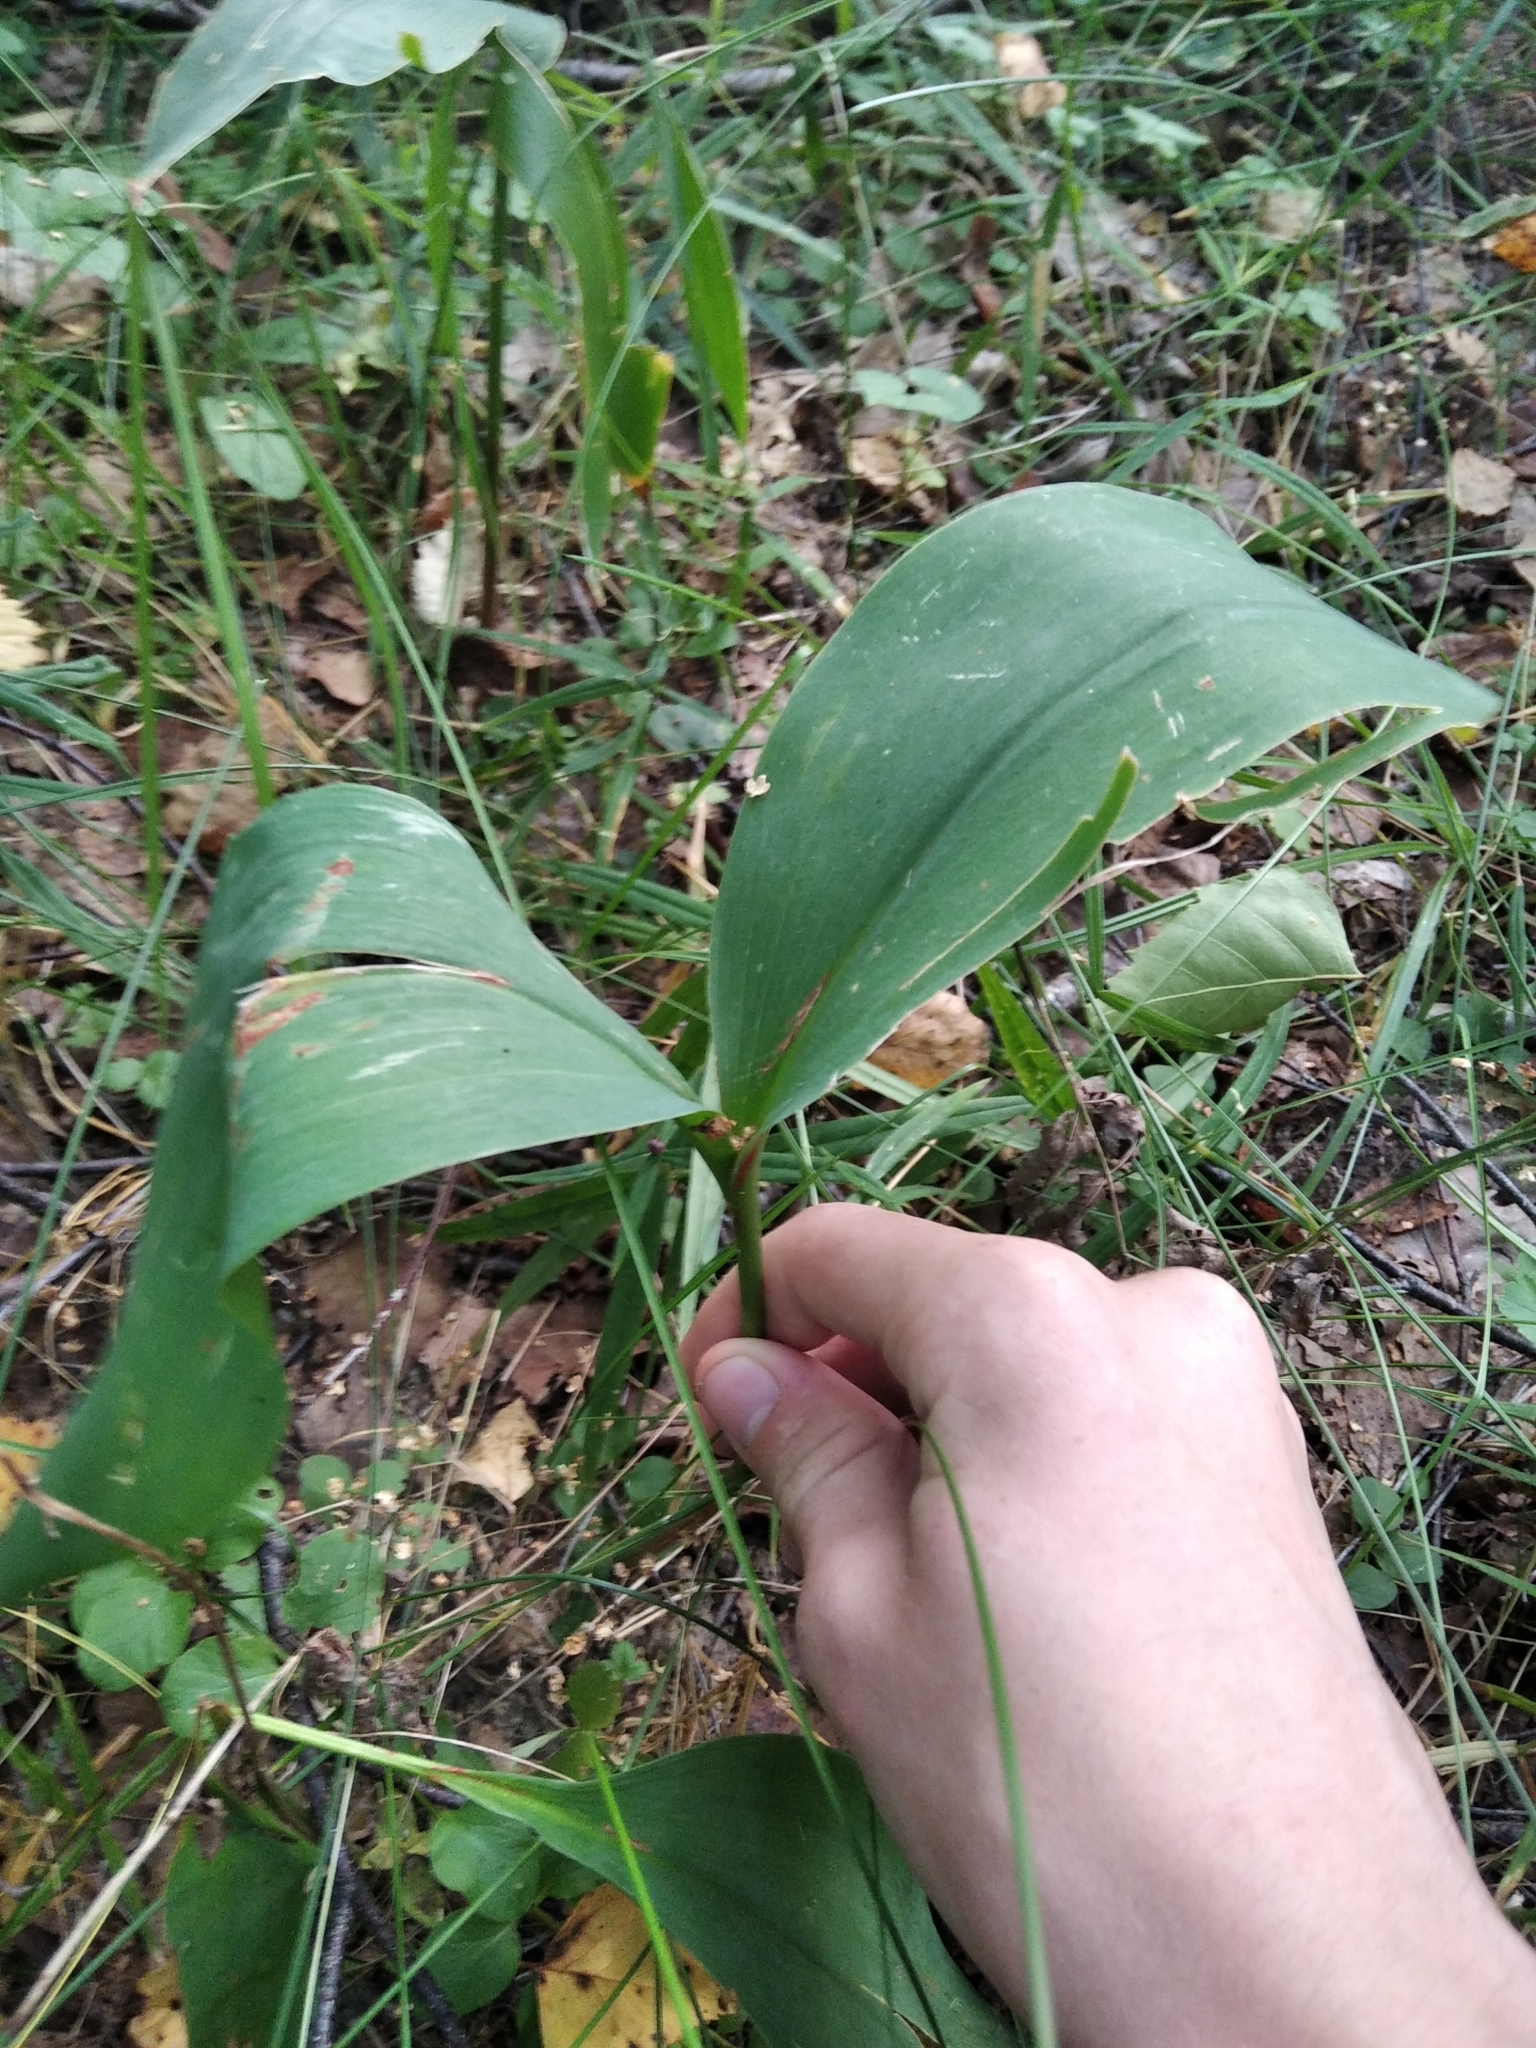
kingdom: Plantae
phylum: Tracheophyta
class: Liliopsida
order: Asparagales
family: Asparagaceae
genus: Convallaria
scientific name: Convallaria majalis
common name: Lily-of-the-valley
